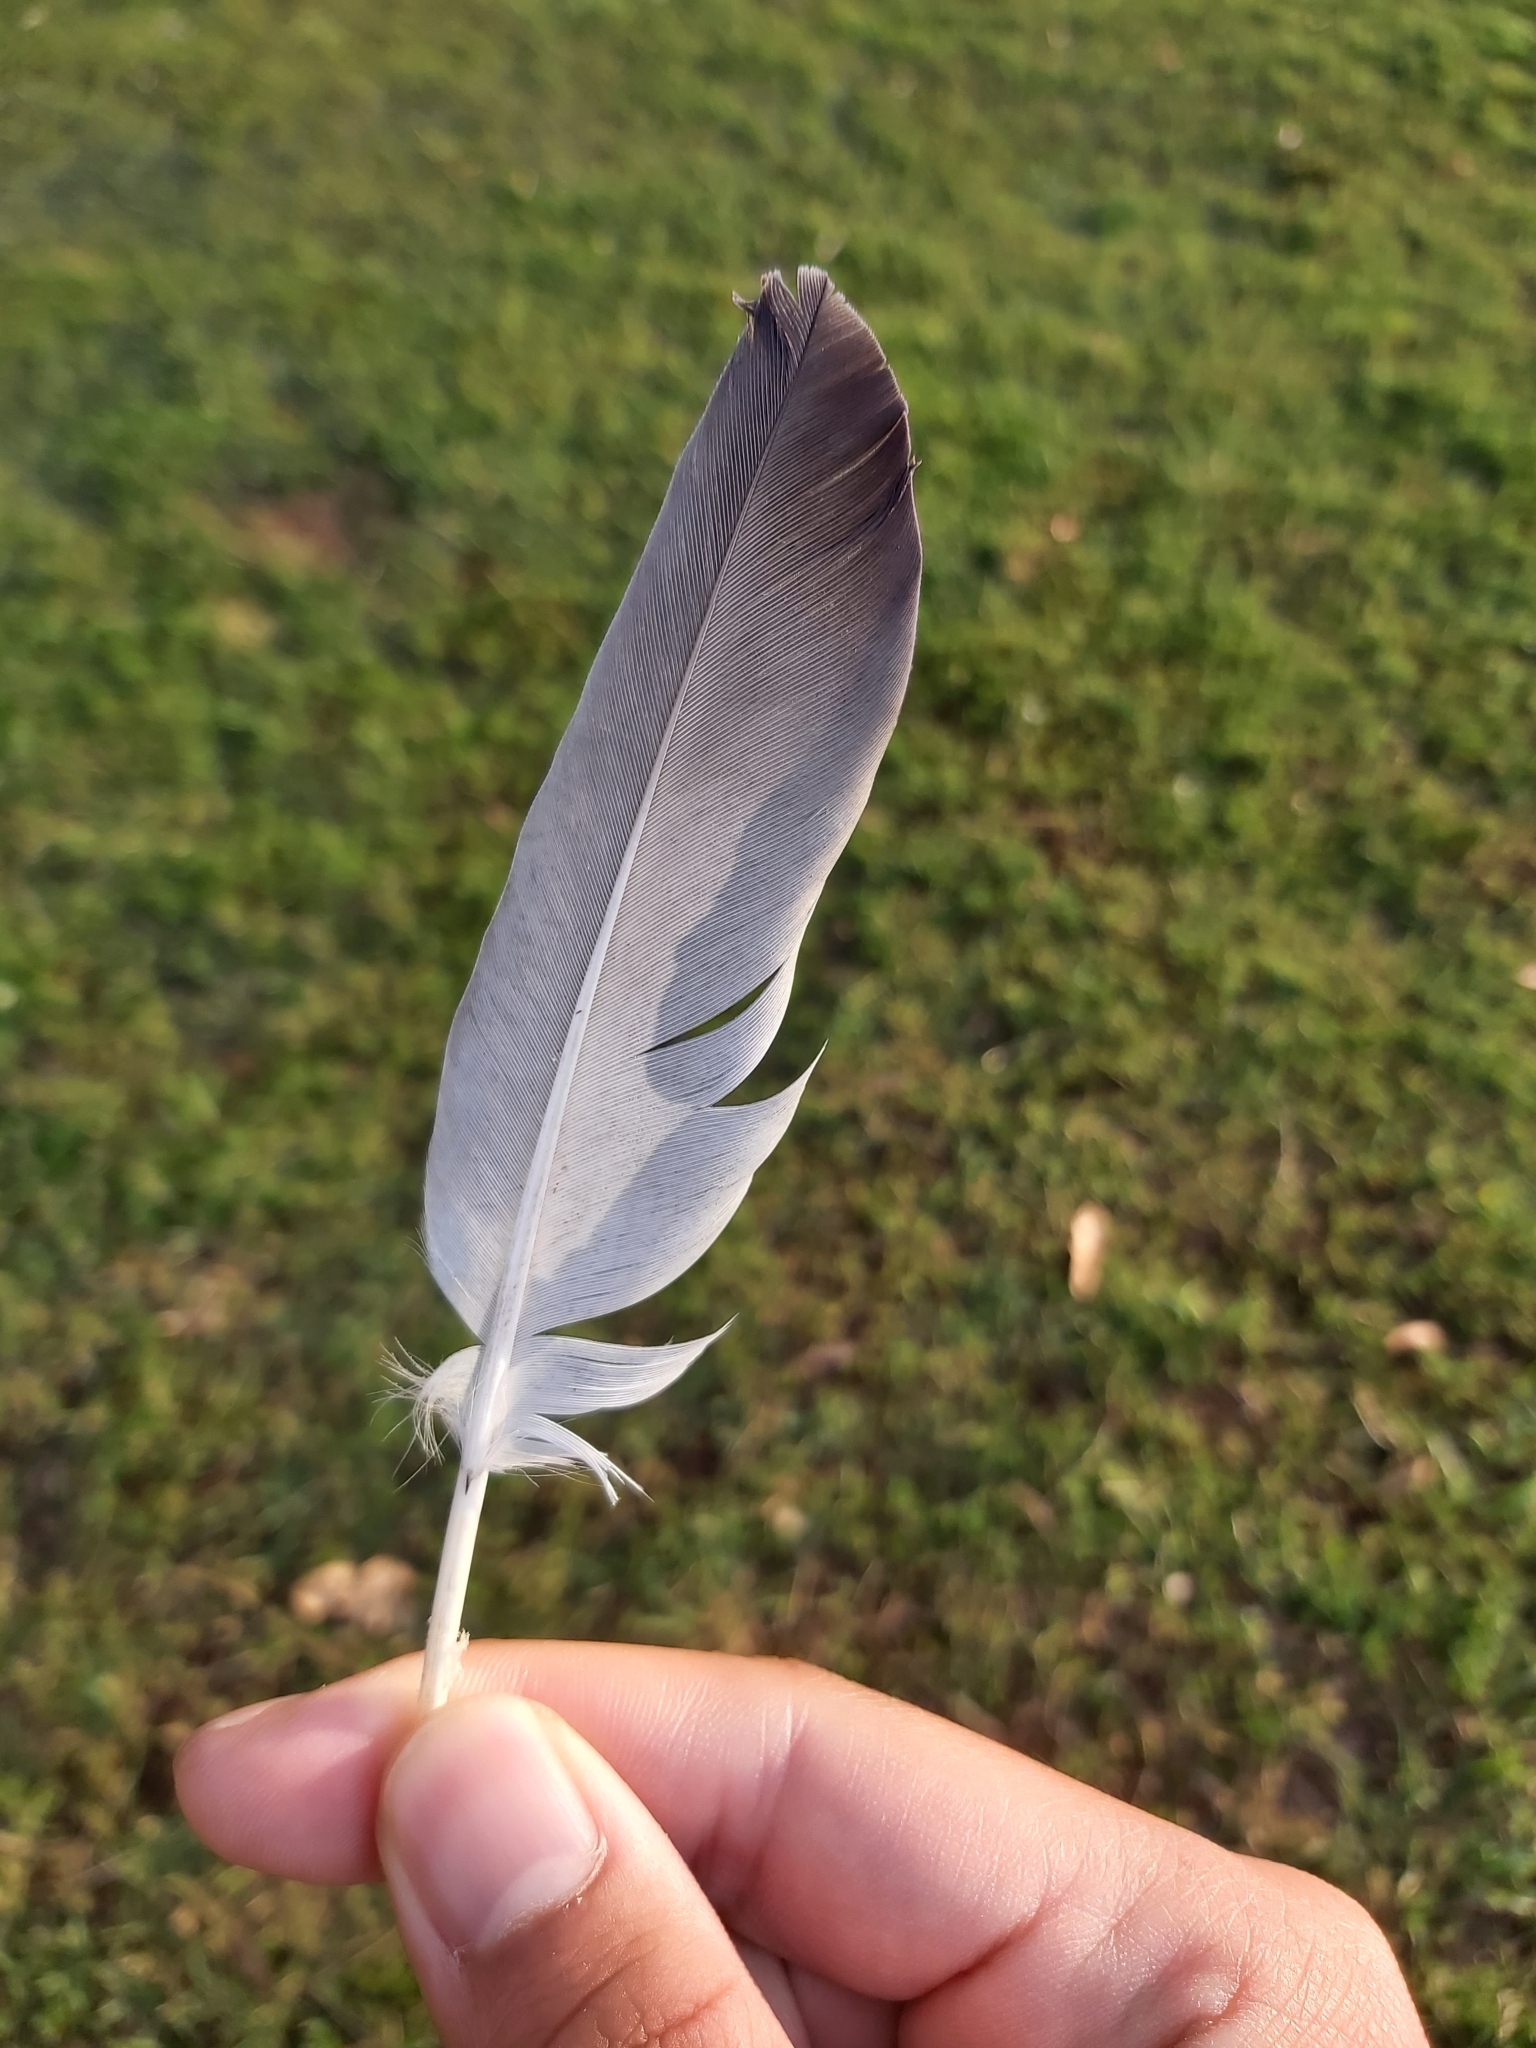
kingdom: Animalia
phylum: Chordata
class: Aves
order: Columbiformes
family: Columbidae
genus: Columba
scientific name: Columba livia
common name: Rock pigeon
